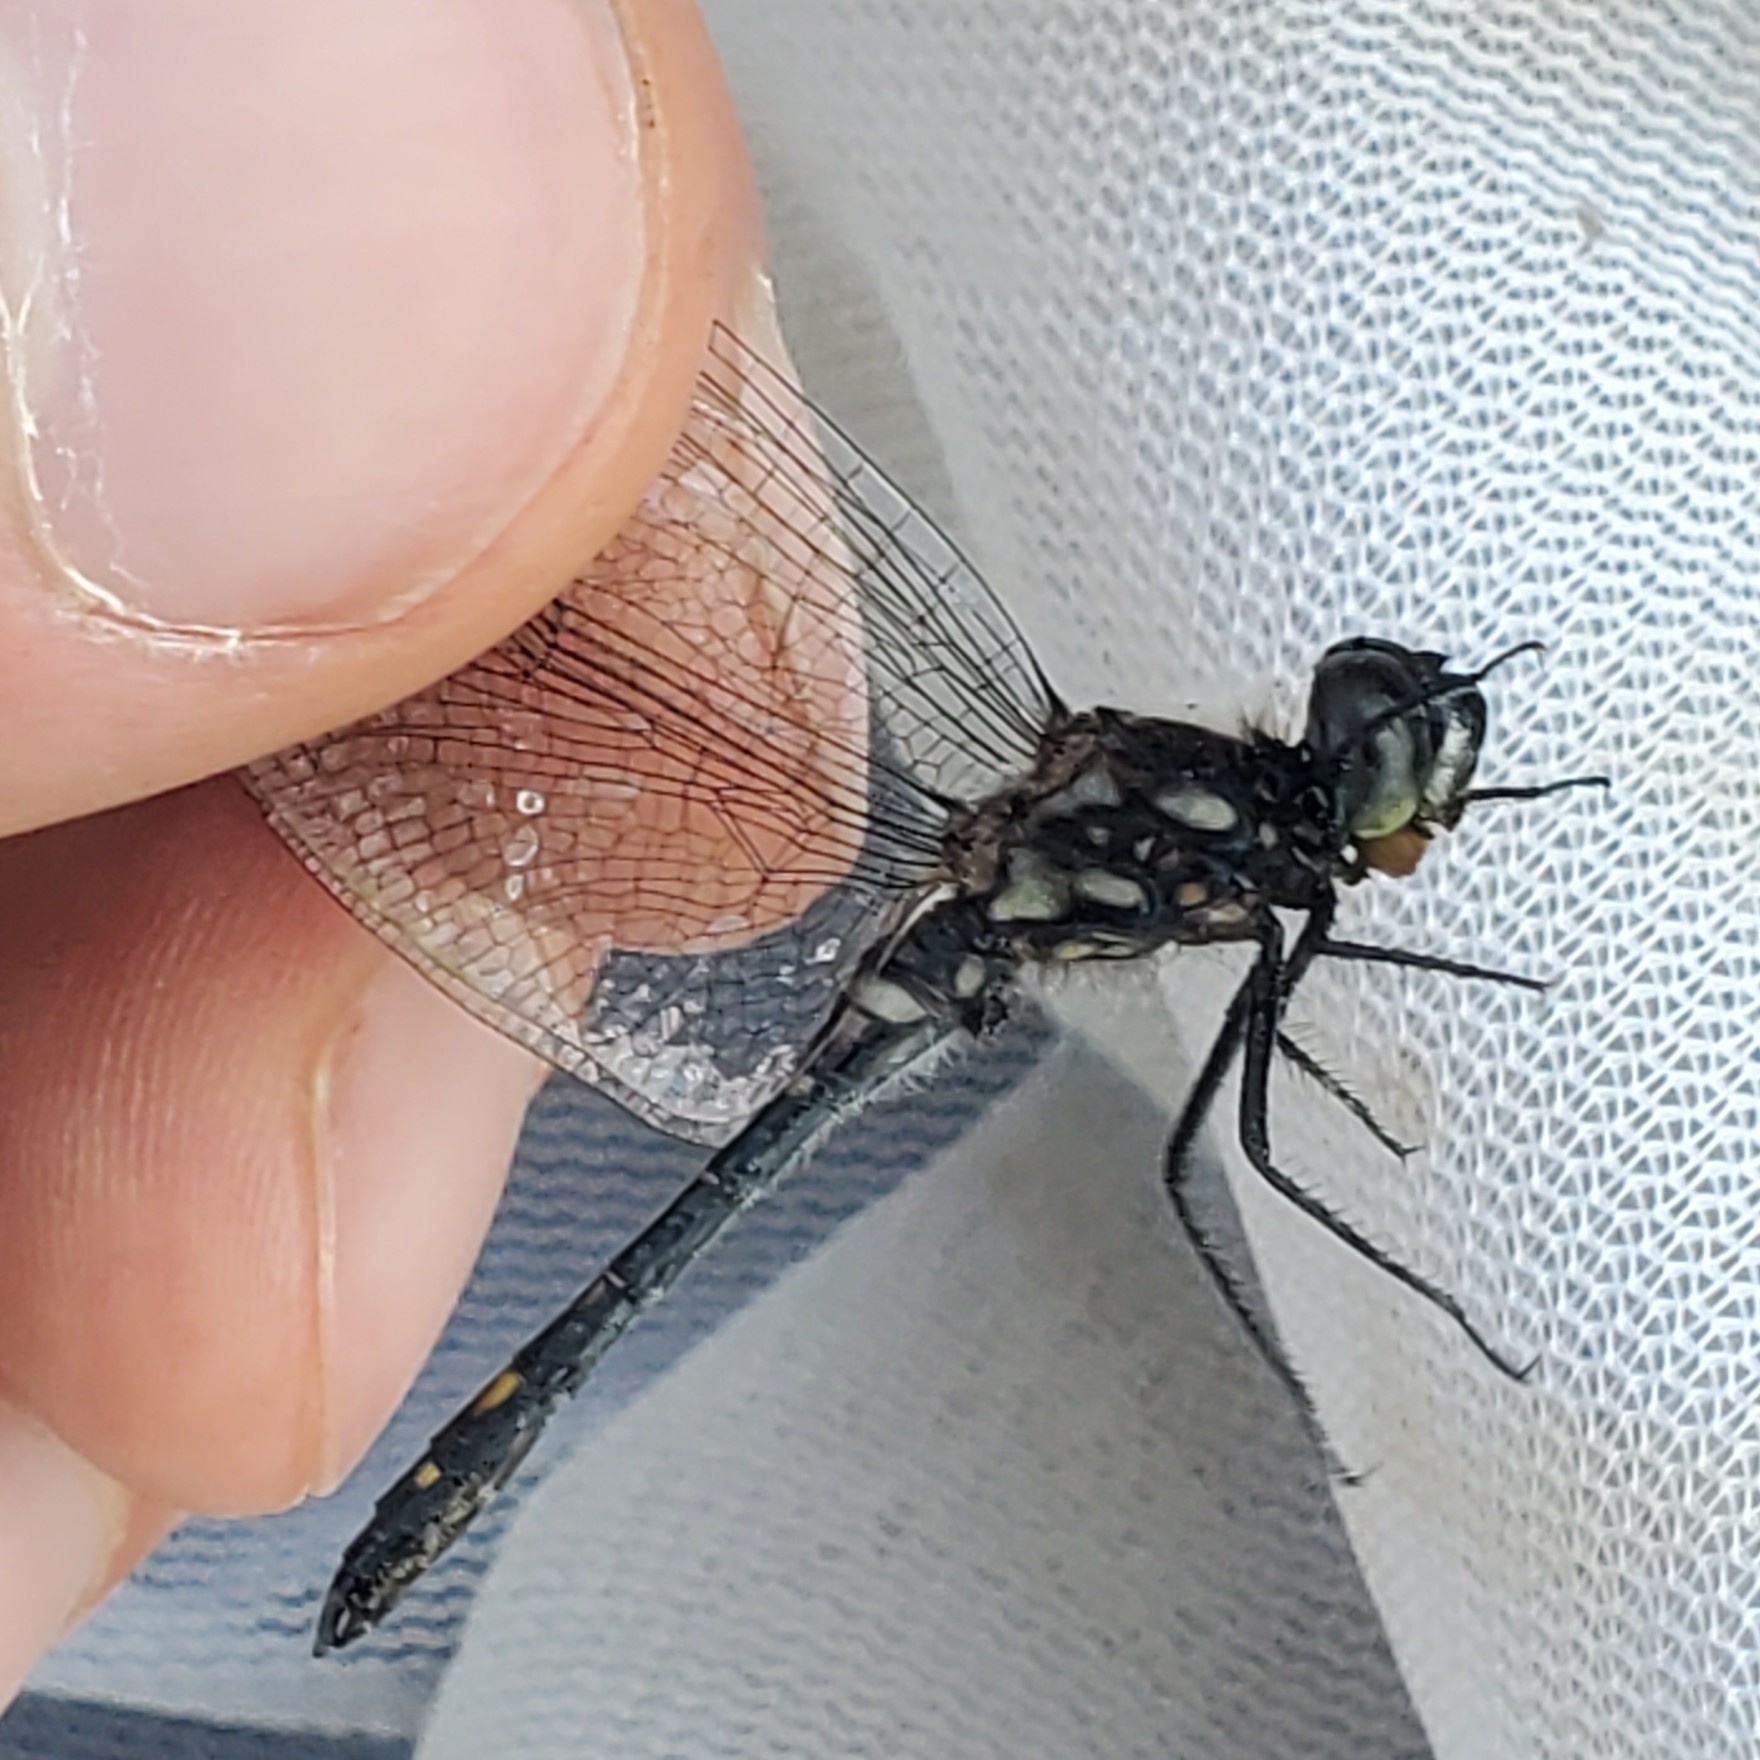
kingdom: Animalia
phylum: Arthropoda
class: Insecta
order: Odonata
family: Libellulidae
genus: Sympetrum
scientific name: Sympetrum danae
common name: Black darter
